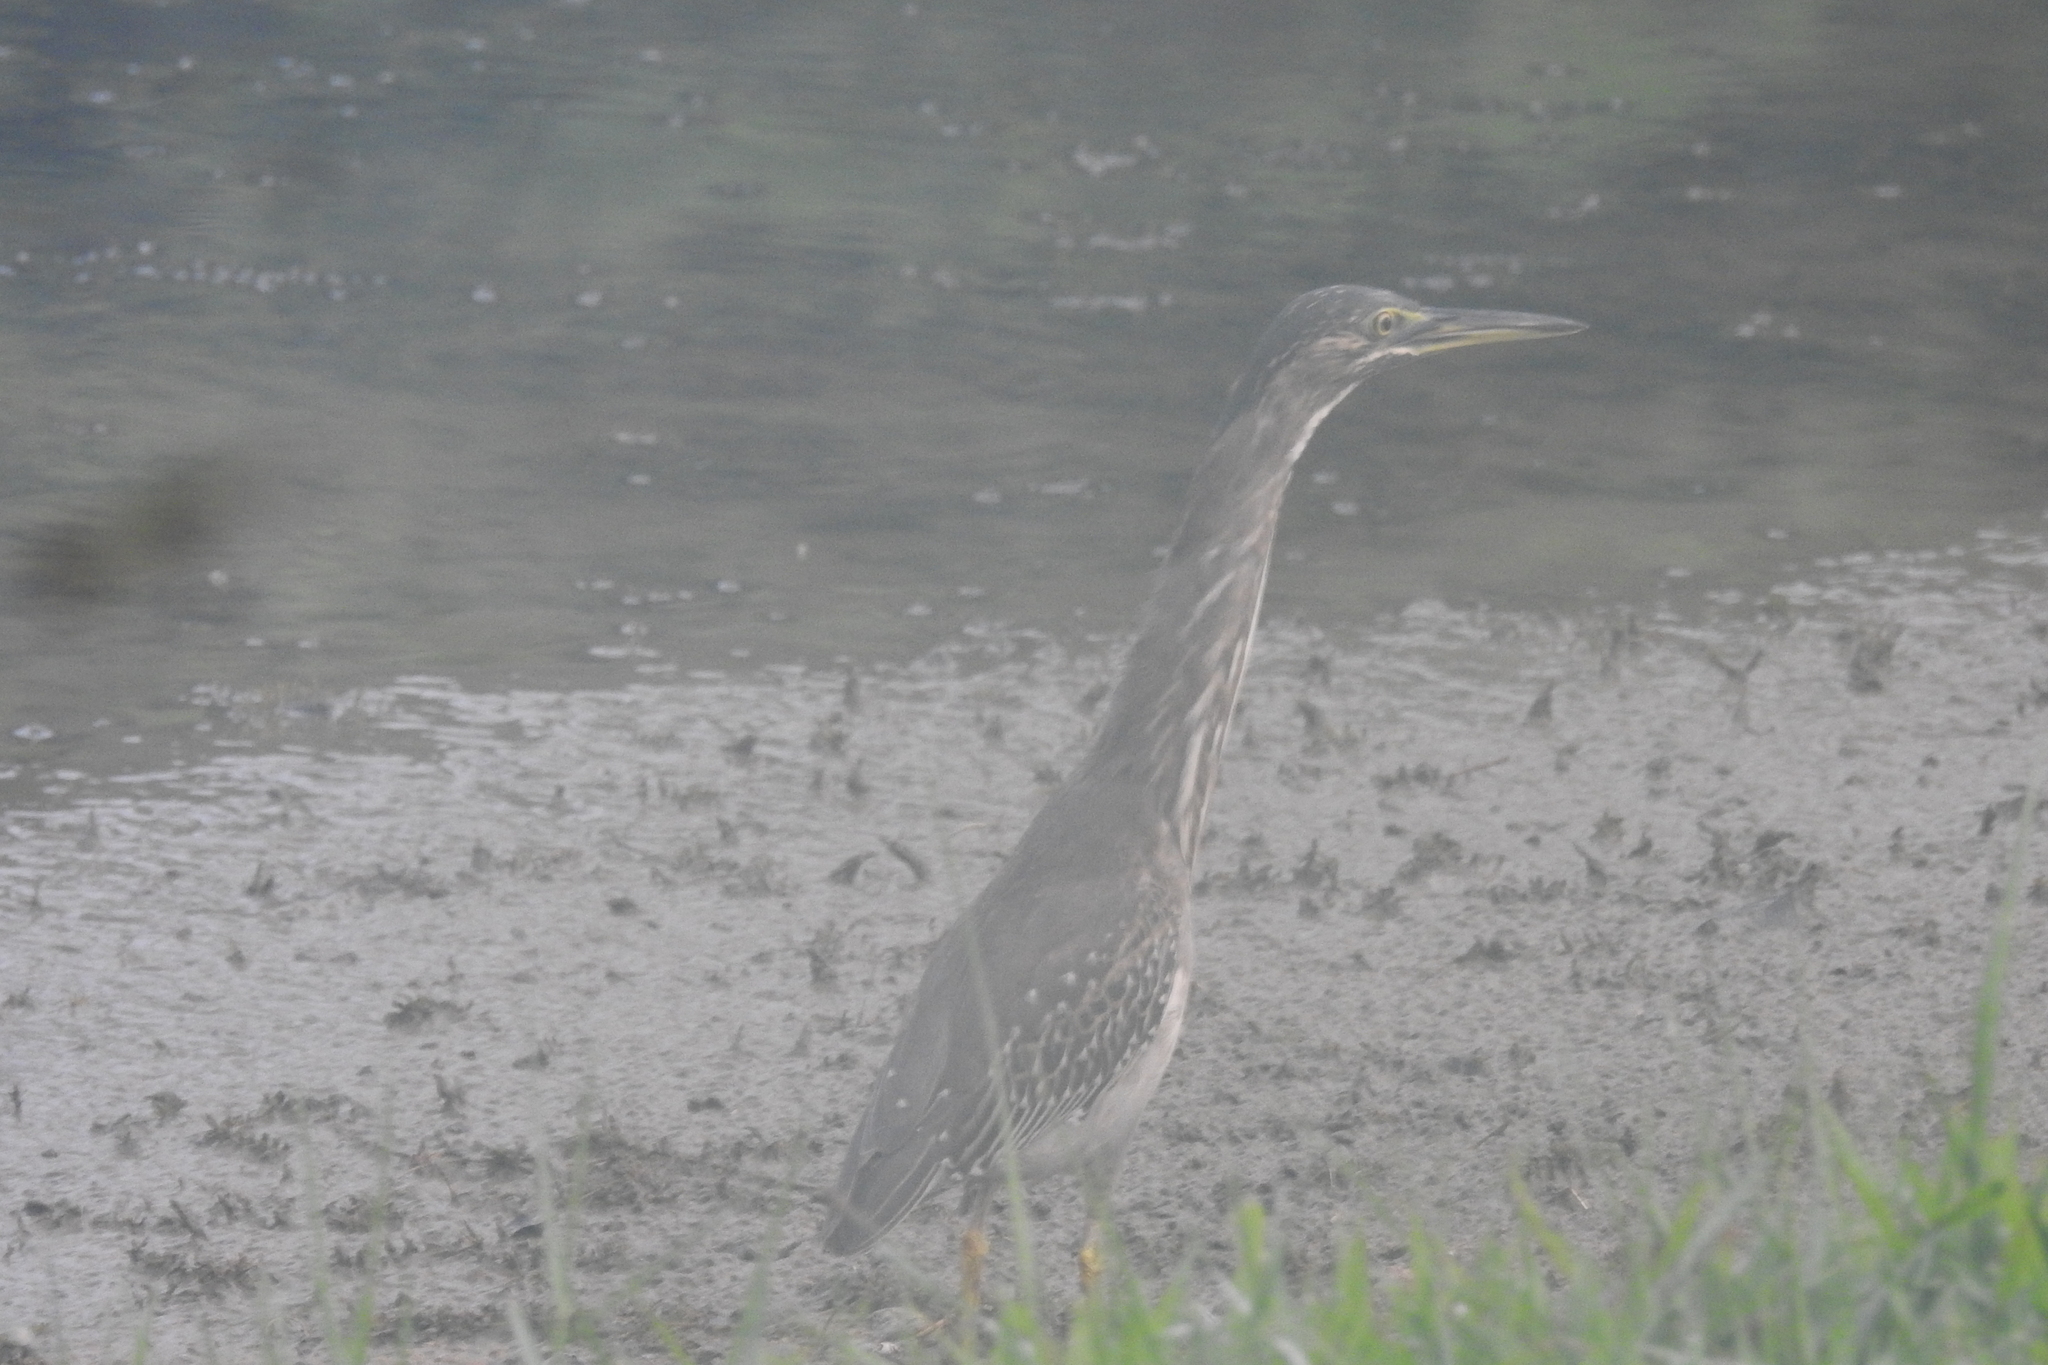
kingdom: Animalia
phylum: Chordata
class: Aves
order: Pelecaniformes
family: Ardeidae
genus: Butorides
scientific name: Butorides striata
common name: Striated heron
